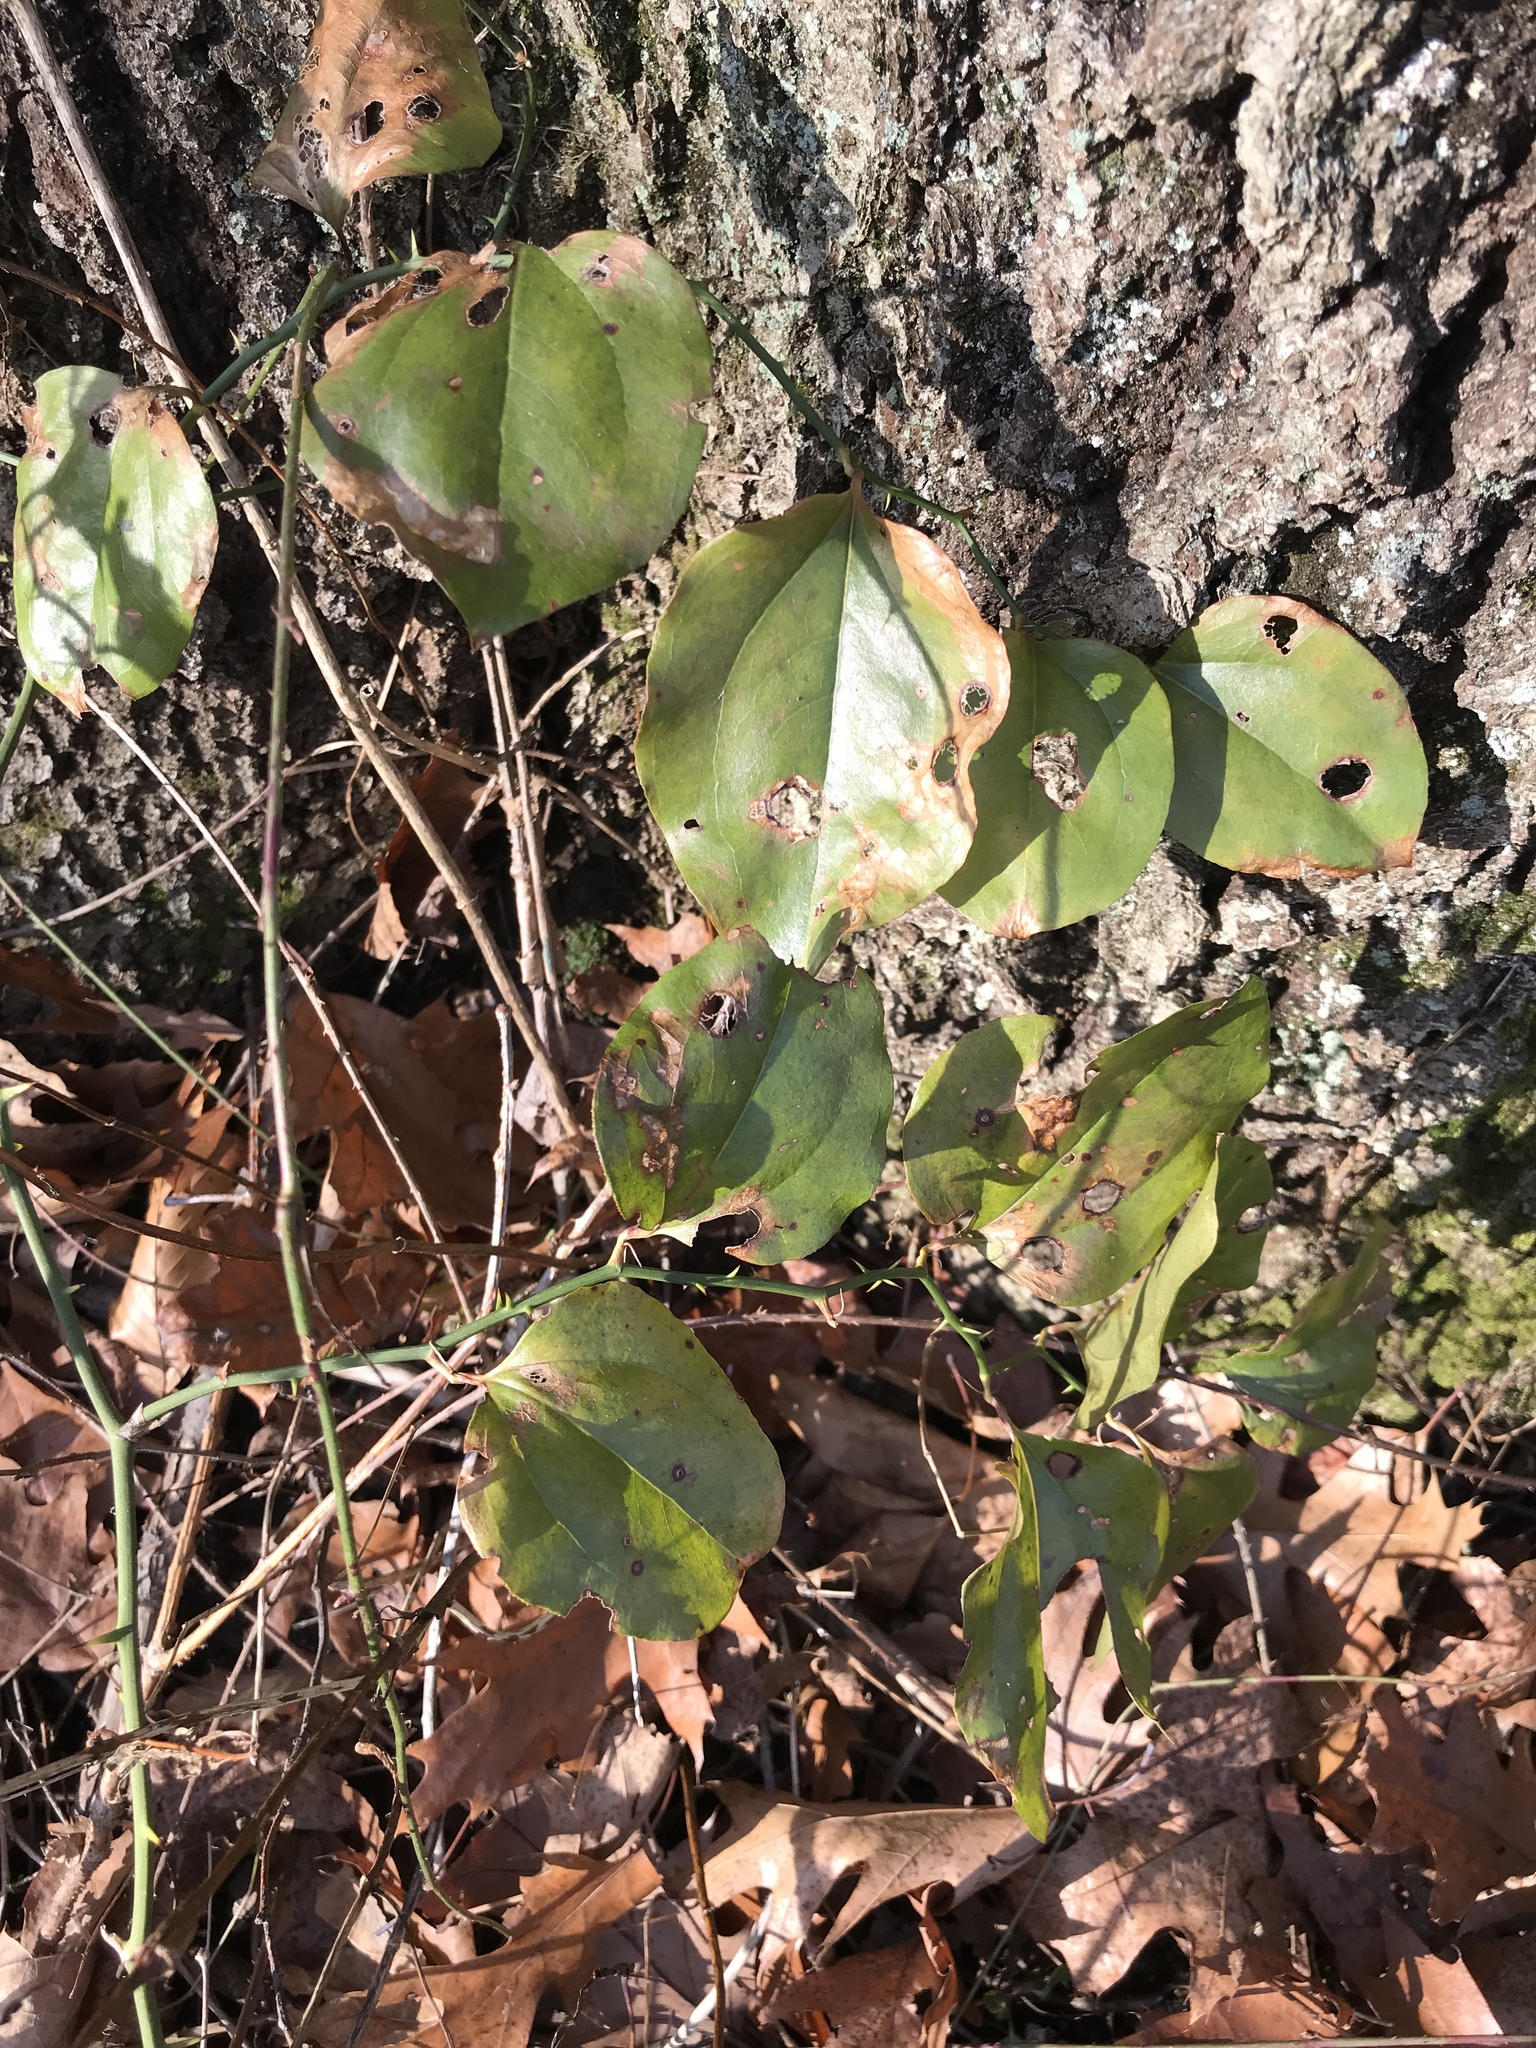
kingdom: Plantae
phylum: Tracheophyta
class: Liliopsida
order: Liliales
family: Smilacaceae
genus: Smilax
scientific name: Smilax rotundifolia
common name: Bullbriar
